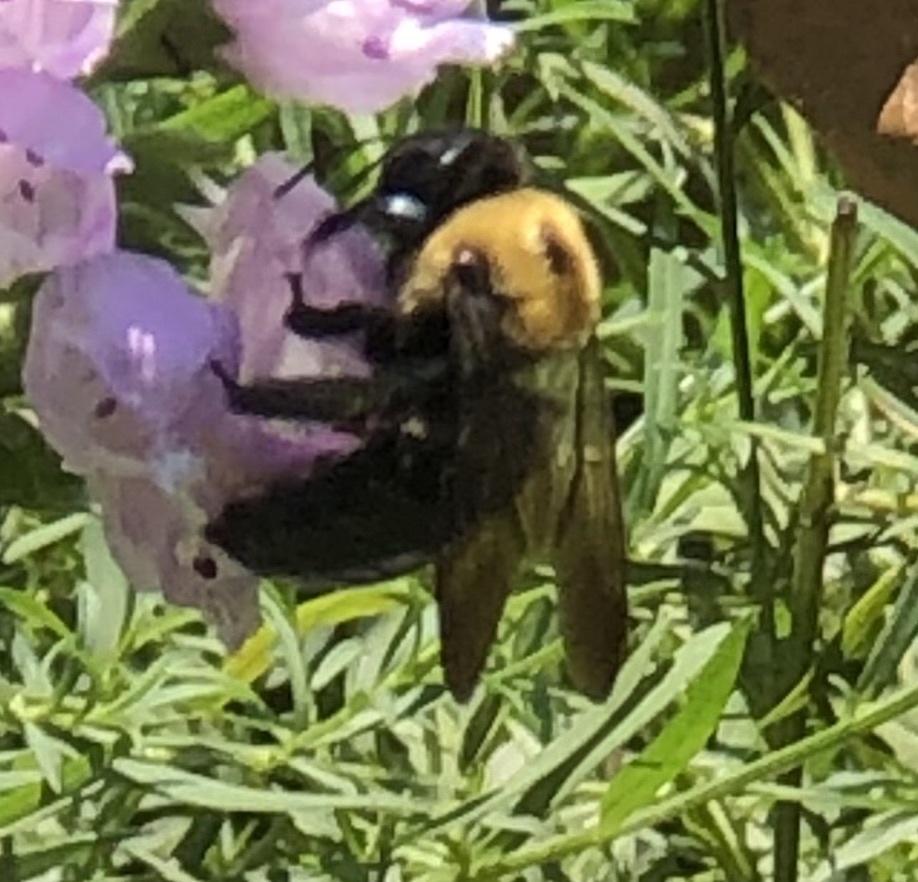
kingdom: Animalia
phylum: Arthropoda
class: Insecta
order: Hymenoptera
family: Apidae
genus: Xylocopa
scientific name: Xylocopa virginica
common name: Carpenter bee
